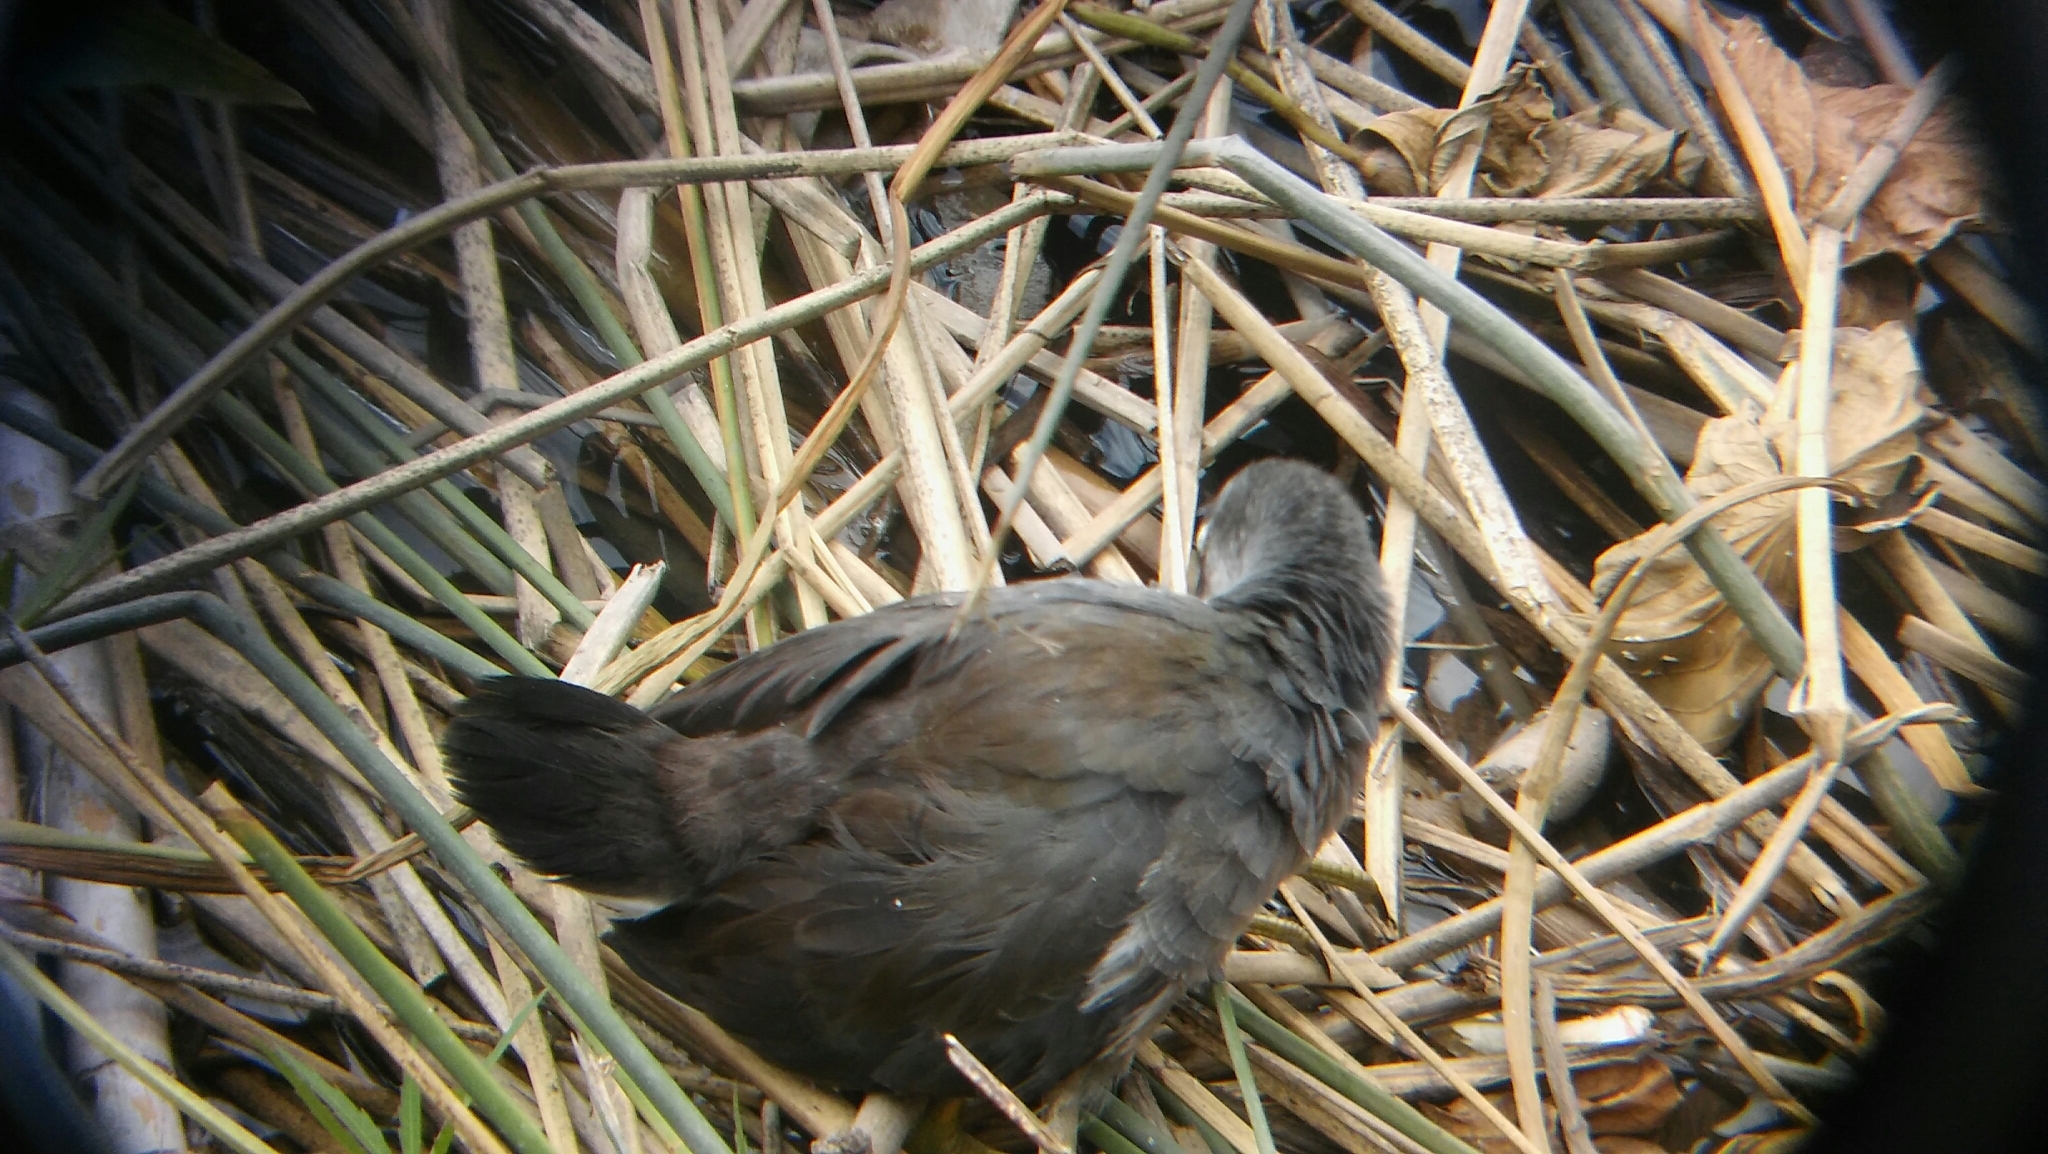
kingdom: Animalia
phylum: Chordata
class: Aves
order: Gruiformes
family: Rallidae
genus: Gallinula
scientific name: Gallinula chloropus
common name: Common moorhen
